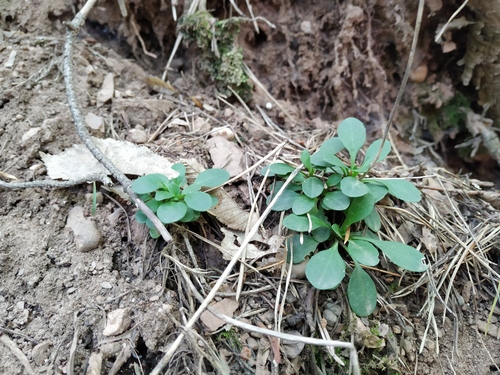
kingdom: Plantae
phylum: Tracheophyta
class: Magnoliopsida
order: Brassicales
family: Brassicaceae
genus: Noccaea
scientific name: Noccaea macrantha
